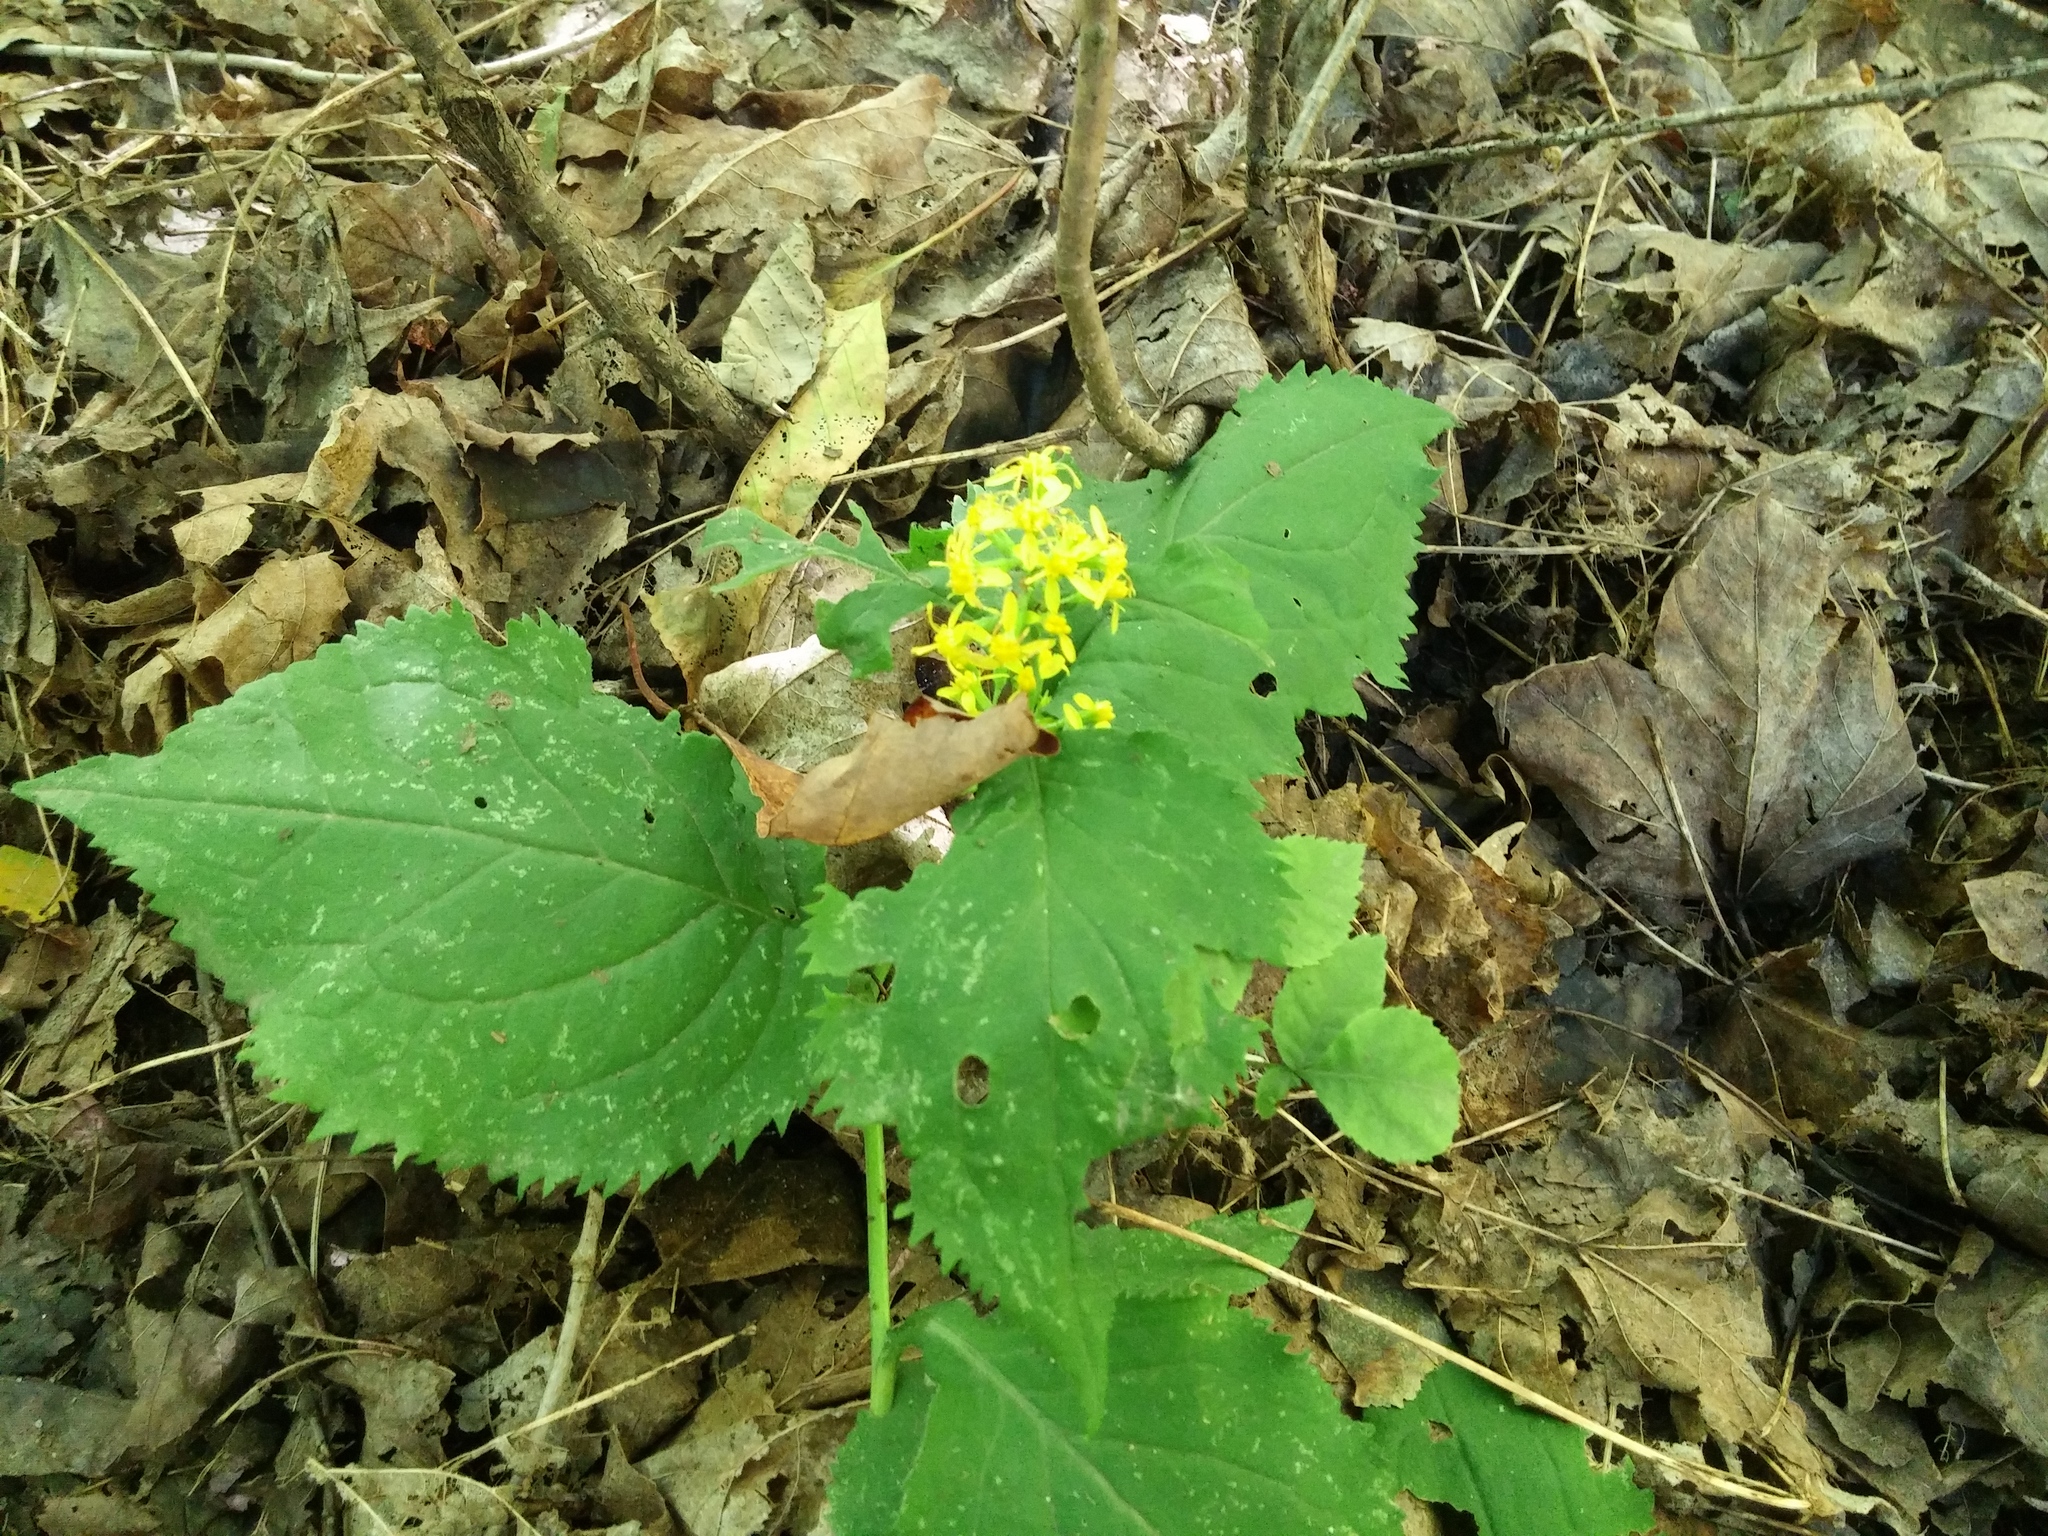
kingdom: Plantae
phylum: Tracheophyta
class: Magnoliopsida
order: Asterales
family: Asteraceae
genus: Solidago
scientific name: Solidago flexicaulis
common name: Zig-zag goldenrod
